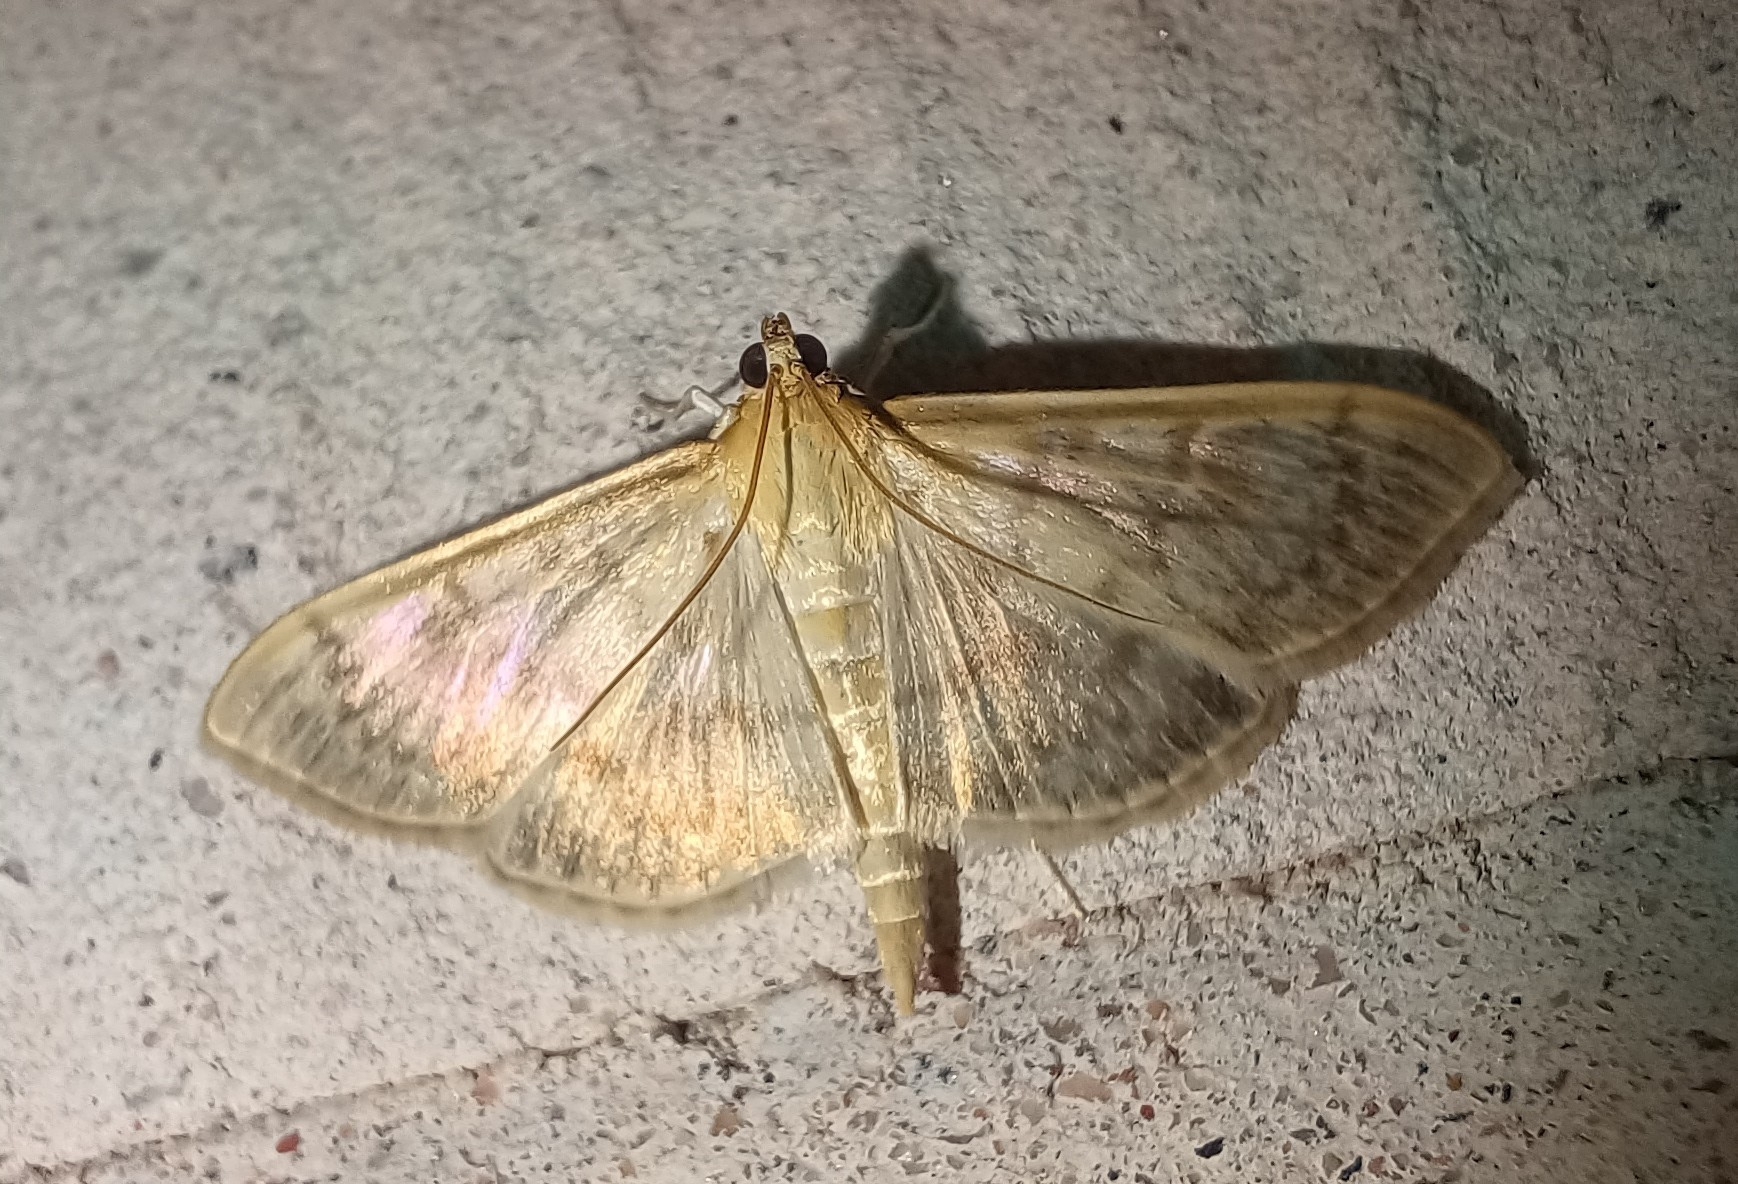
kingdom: Animalia
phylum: Arthropoda
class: Insecta
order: Lepidoptera
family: Crambidae
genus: Patania
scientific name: Patania ruralis
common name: Mother of pearl
